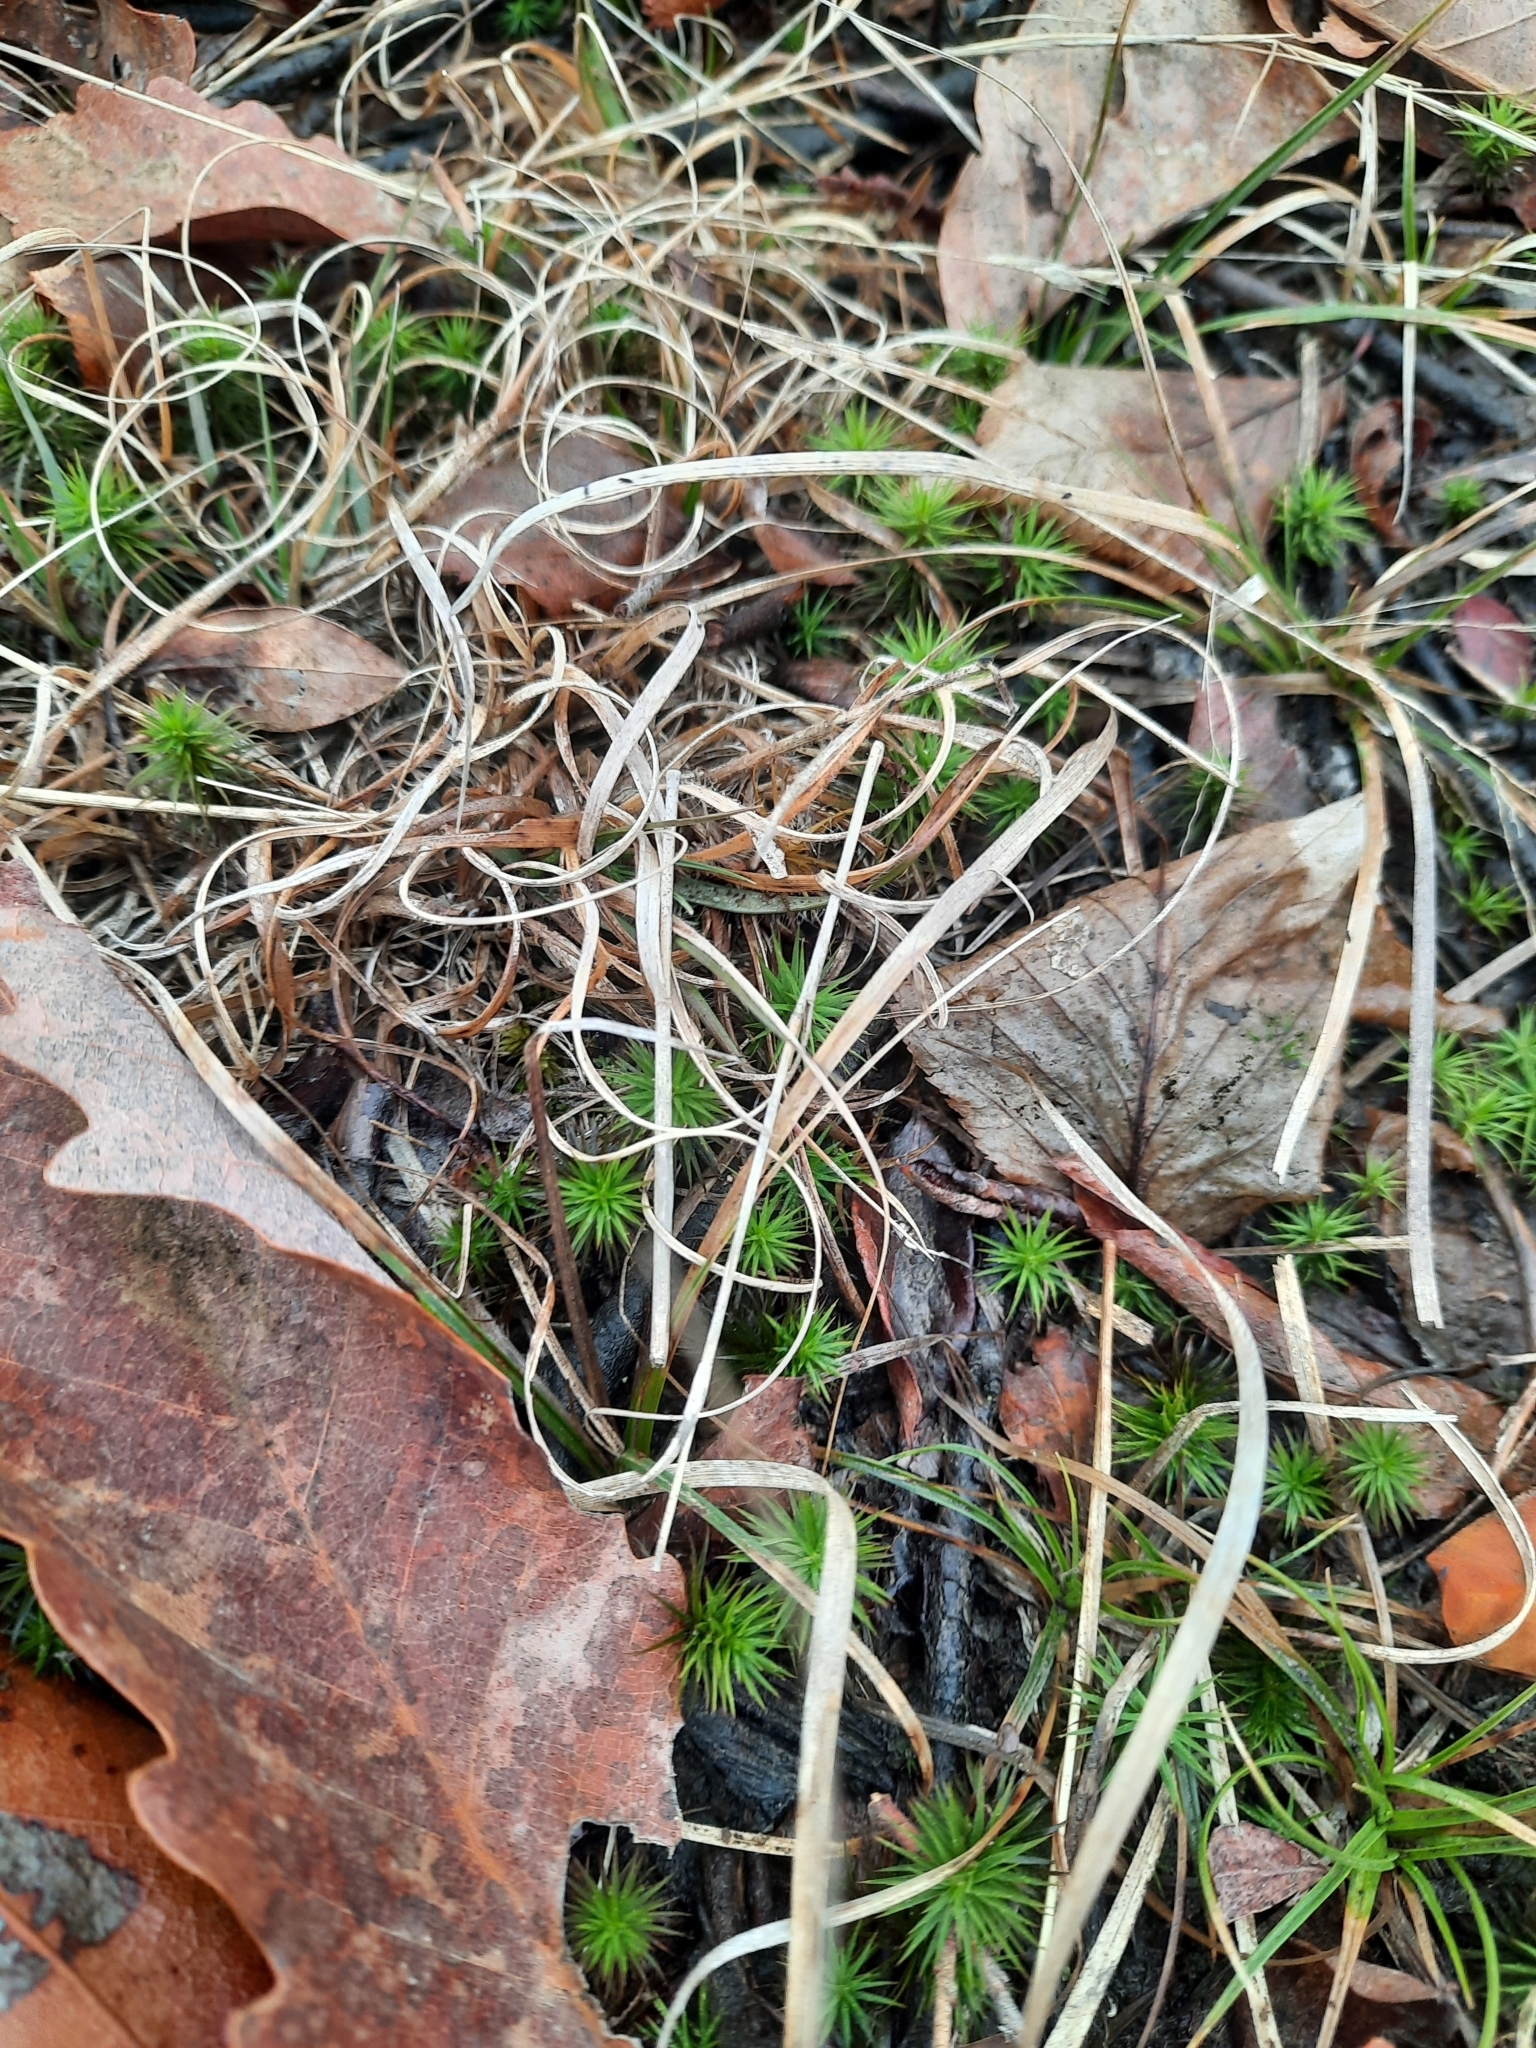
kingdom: Plantae
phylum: Tracheophyta
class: Liliopsida
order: Poales
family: Poaceae
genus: Danthonia
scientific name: Danthonia spicata
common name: Common wild oatgrass
